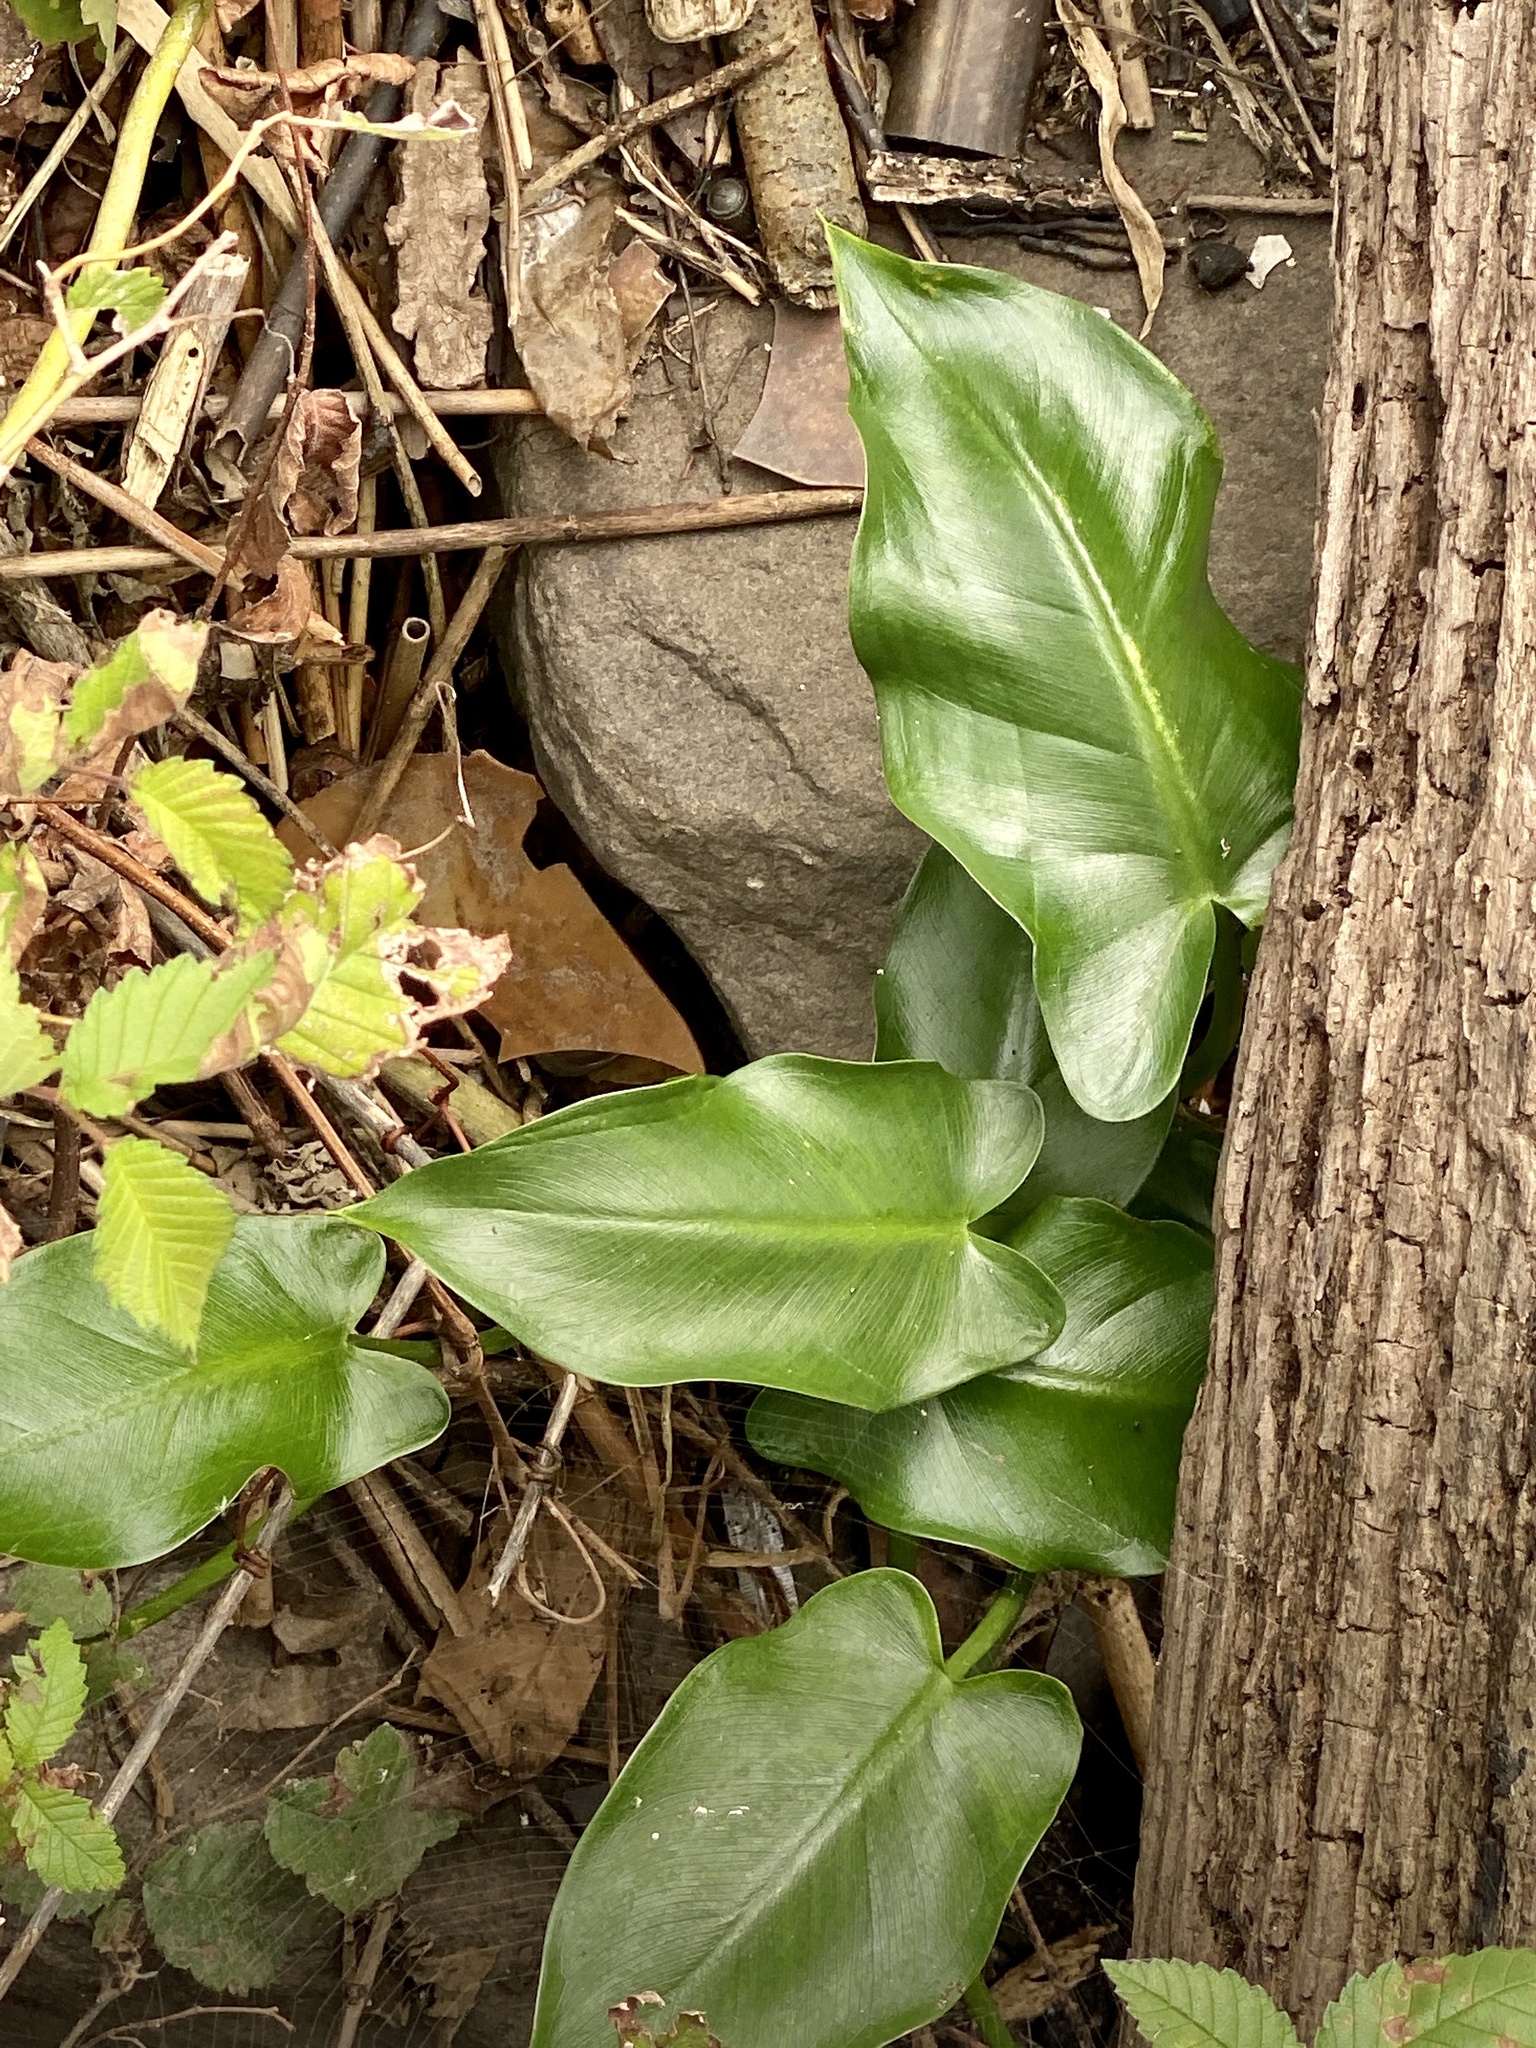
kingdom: Plantae
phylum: Tracheophyta
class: Liliopsida
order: Alismatales
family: Araceae
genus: Peltandra
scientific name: Peltandra virginica
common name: Arrow arum
